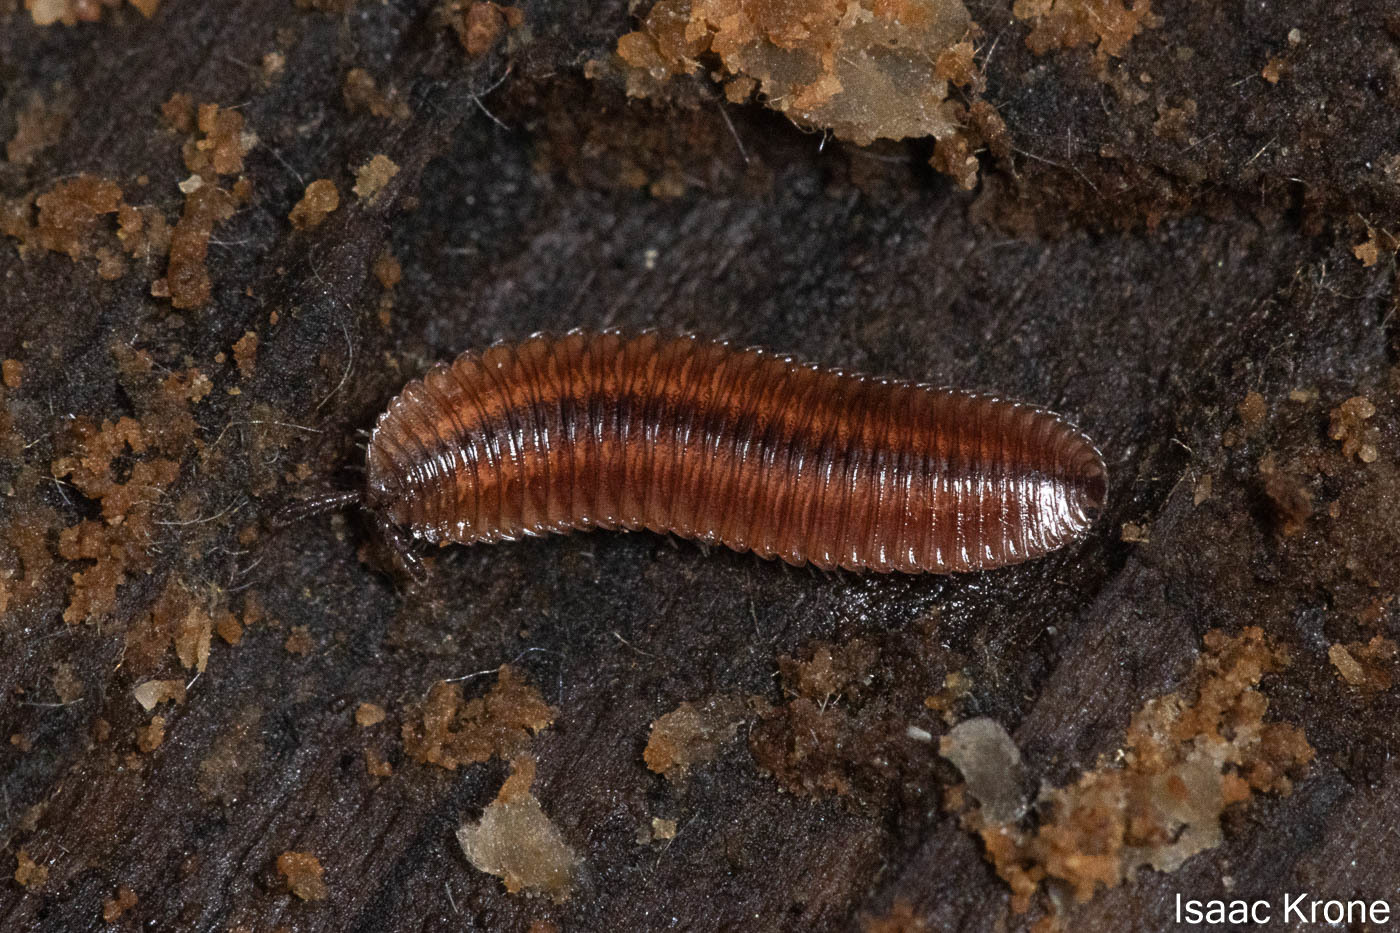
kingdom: Animalia
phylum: Arthropoda
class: Diplopoda
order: Polyzoniida
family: Hirudisomatidae
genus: Octoglena
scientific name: Octoglena bivirgatum
